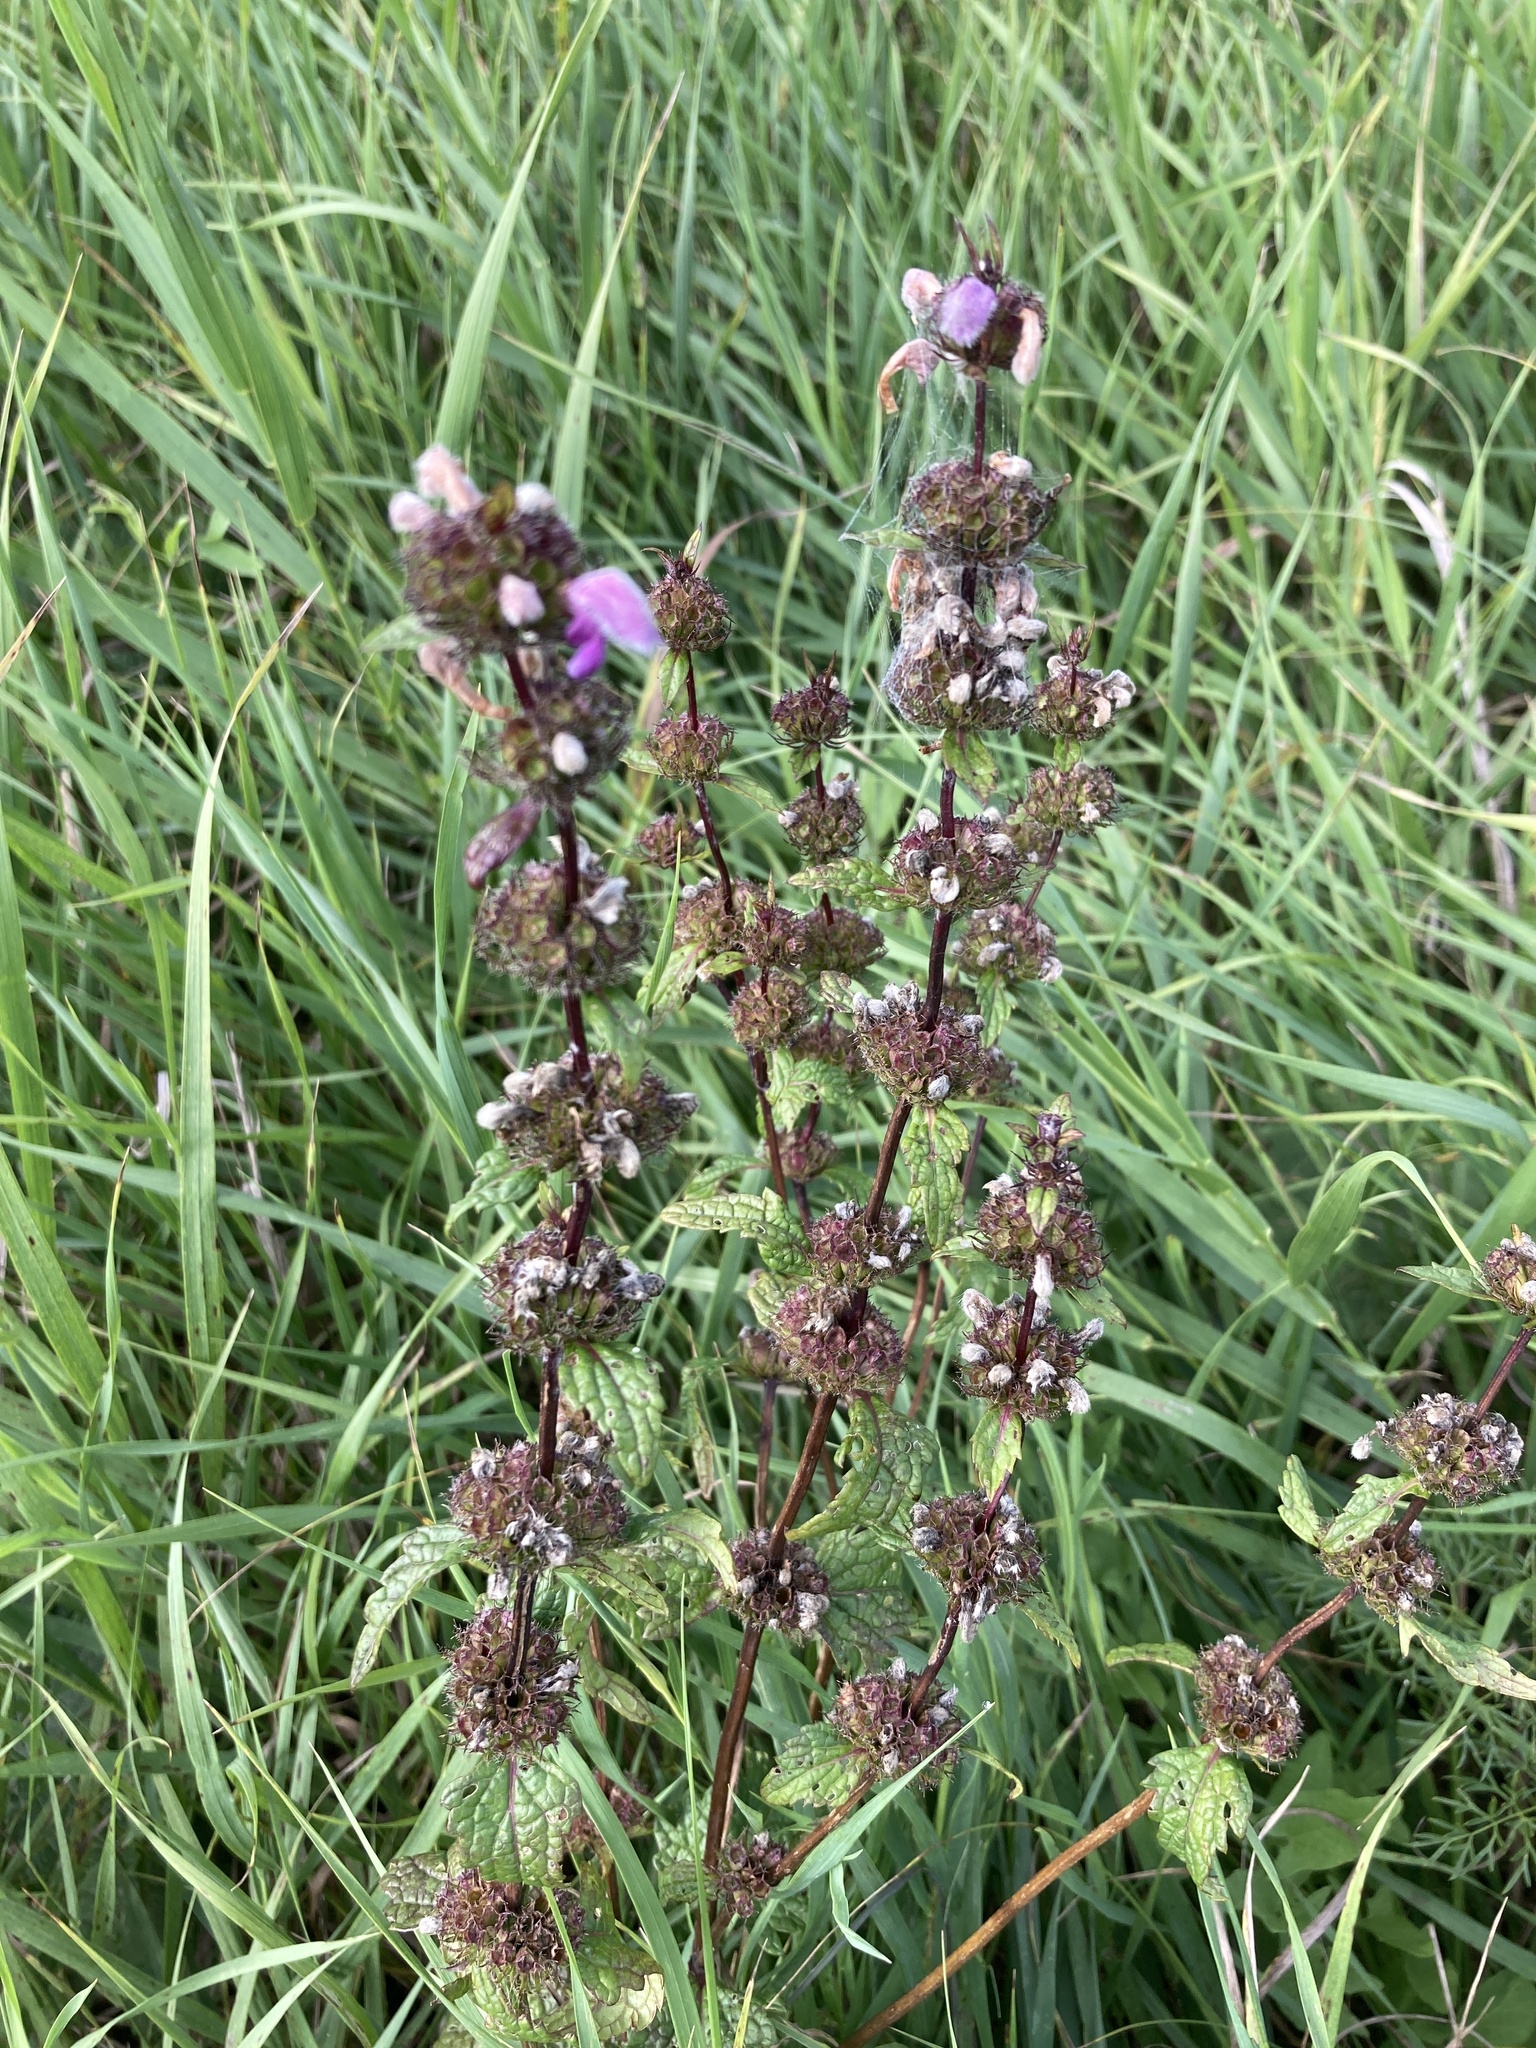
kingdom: Plantae
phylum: Tracheophyta
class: Magnoliopsida
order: Lamiales
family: Lamiaceae
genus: Phlomoides
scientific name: Phlomoides tuberosa
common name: Tuberous jerusalem sage
